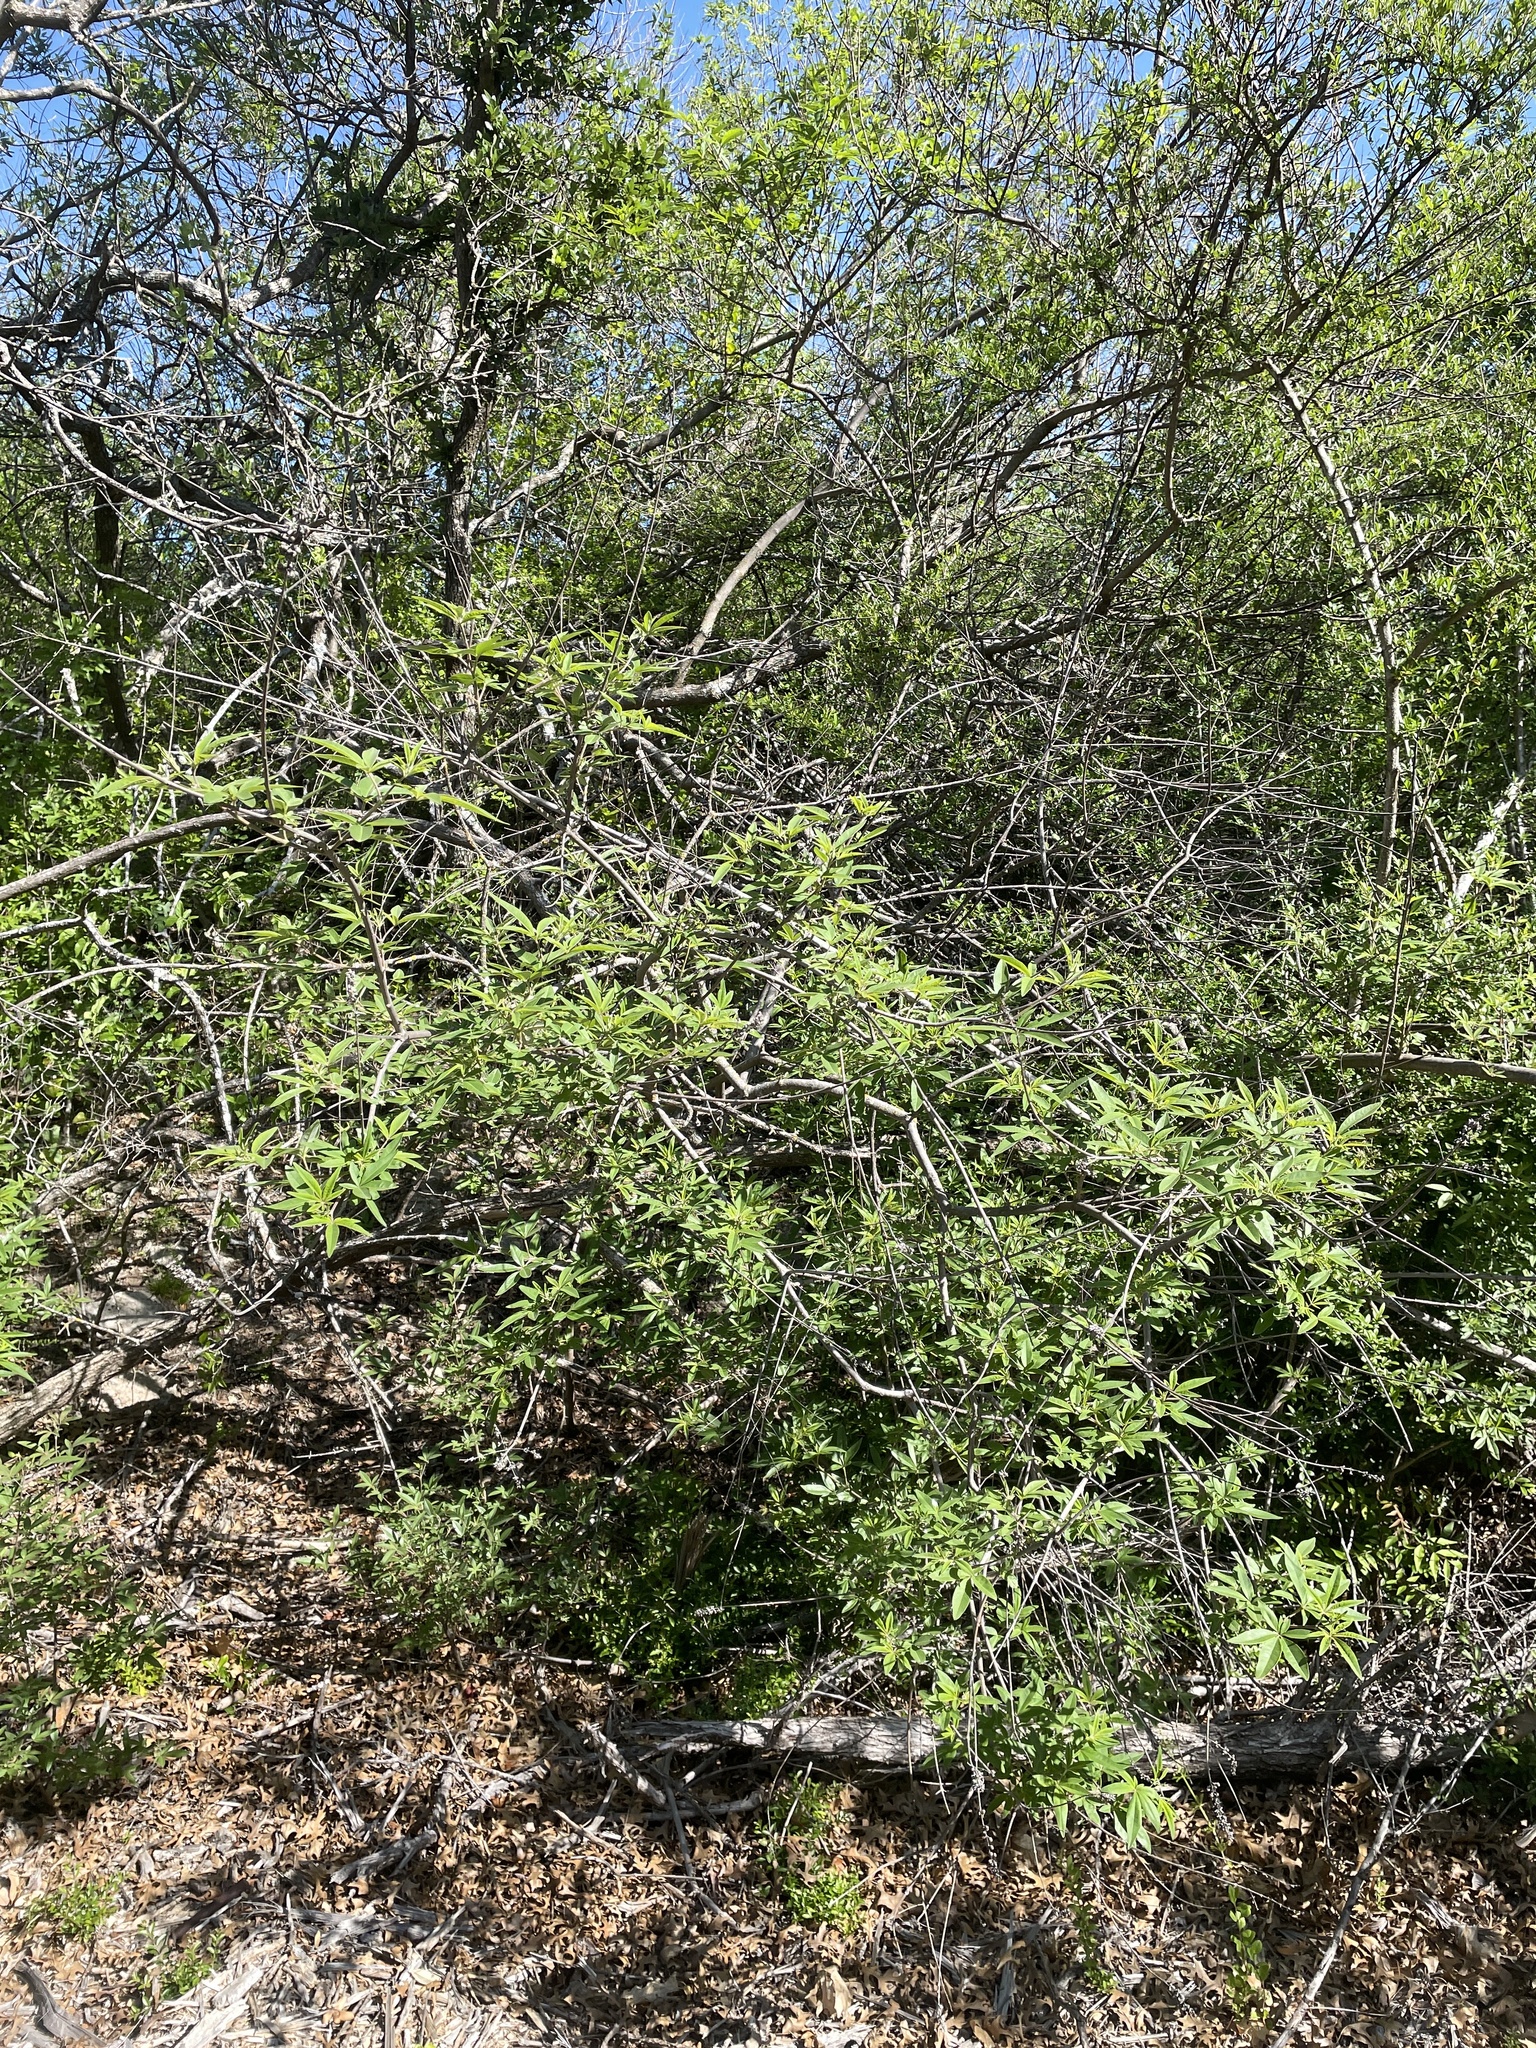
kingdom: Plantae
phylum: Tracheophyta
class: Magnoliopsida
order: Lamiales
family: Lamiaceae
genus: Vitex
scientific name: Vitex agnus-castus
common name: Chasteberry
